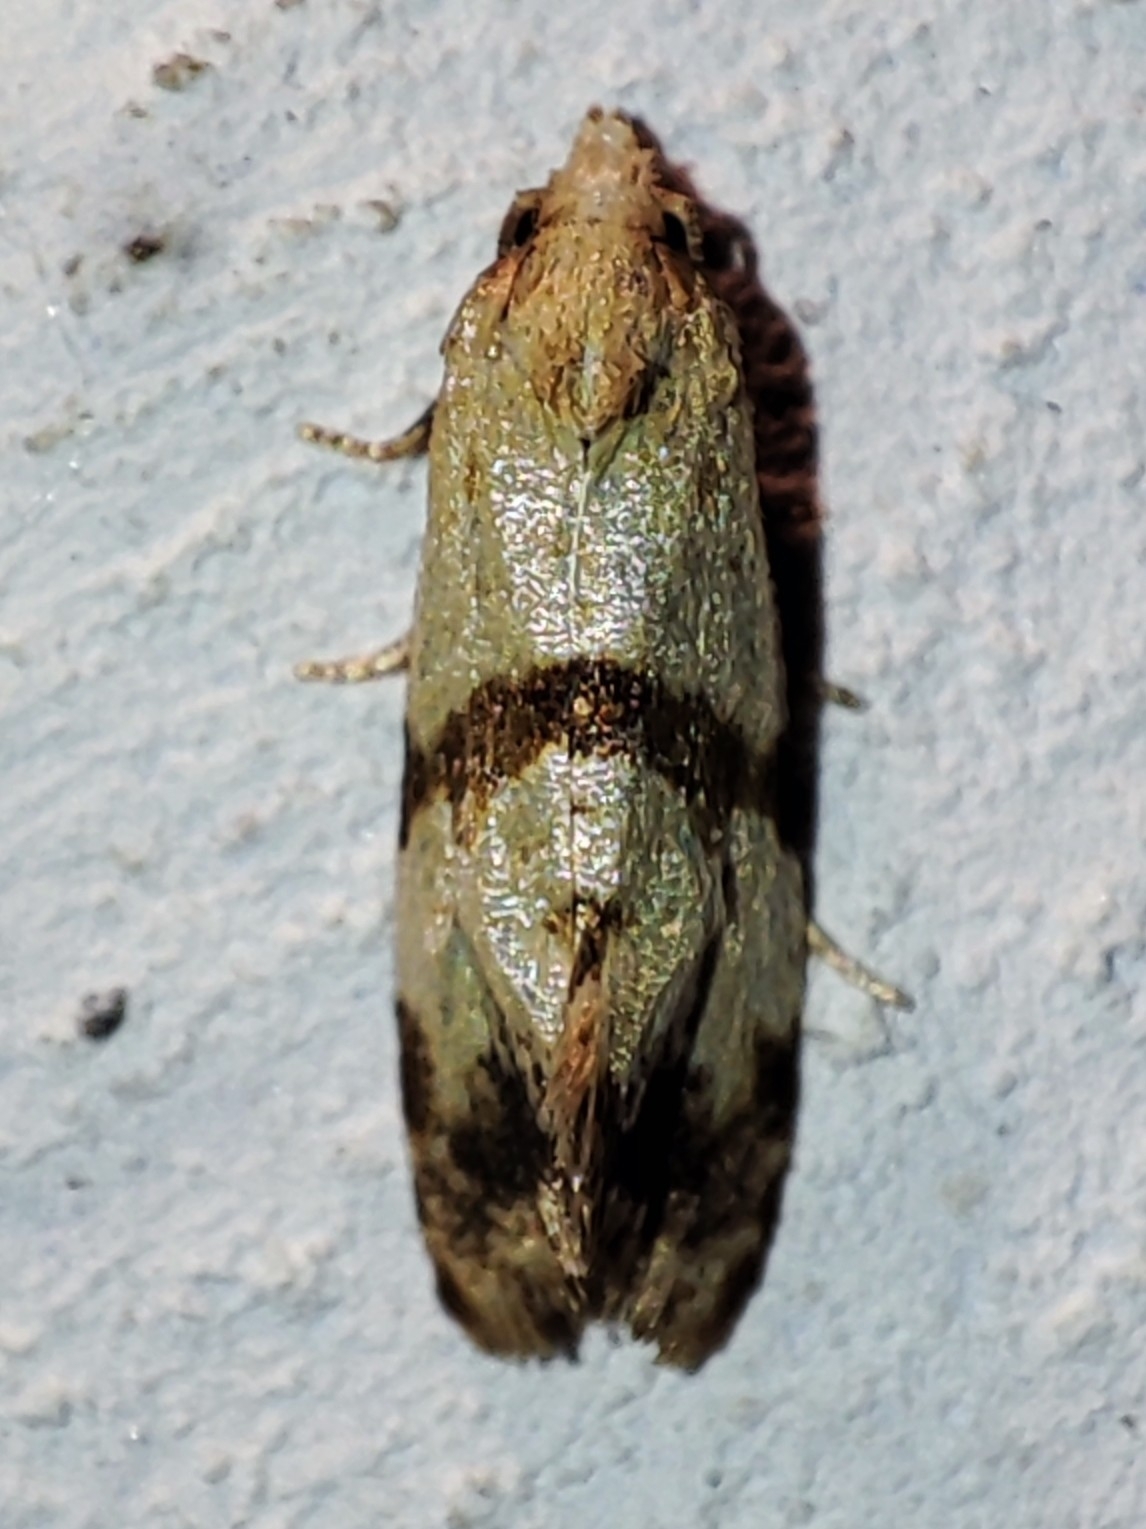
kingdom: Animalia
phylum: Arthropoda
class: Insecta
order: Lepidoptera
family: Tortricidae
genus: Phalonidia
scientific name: Phalonidia contractana
